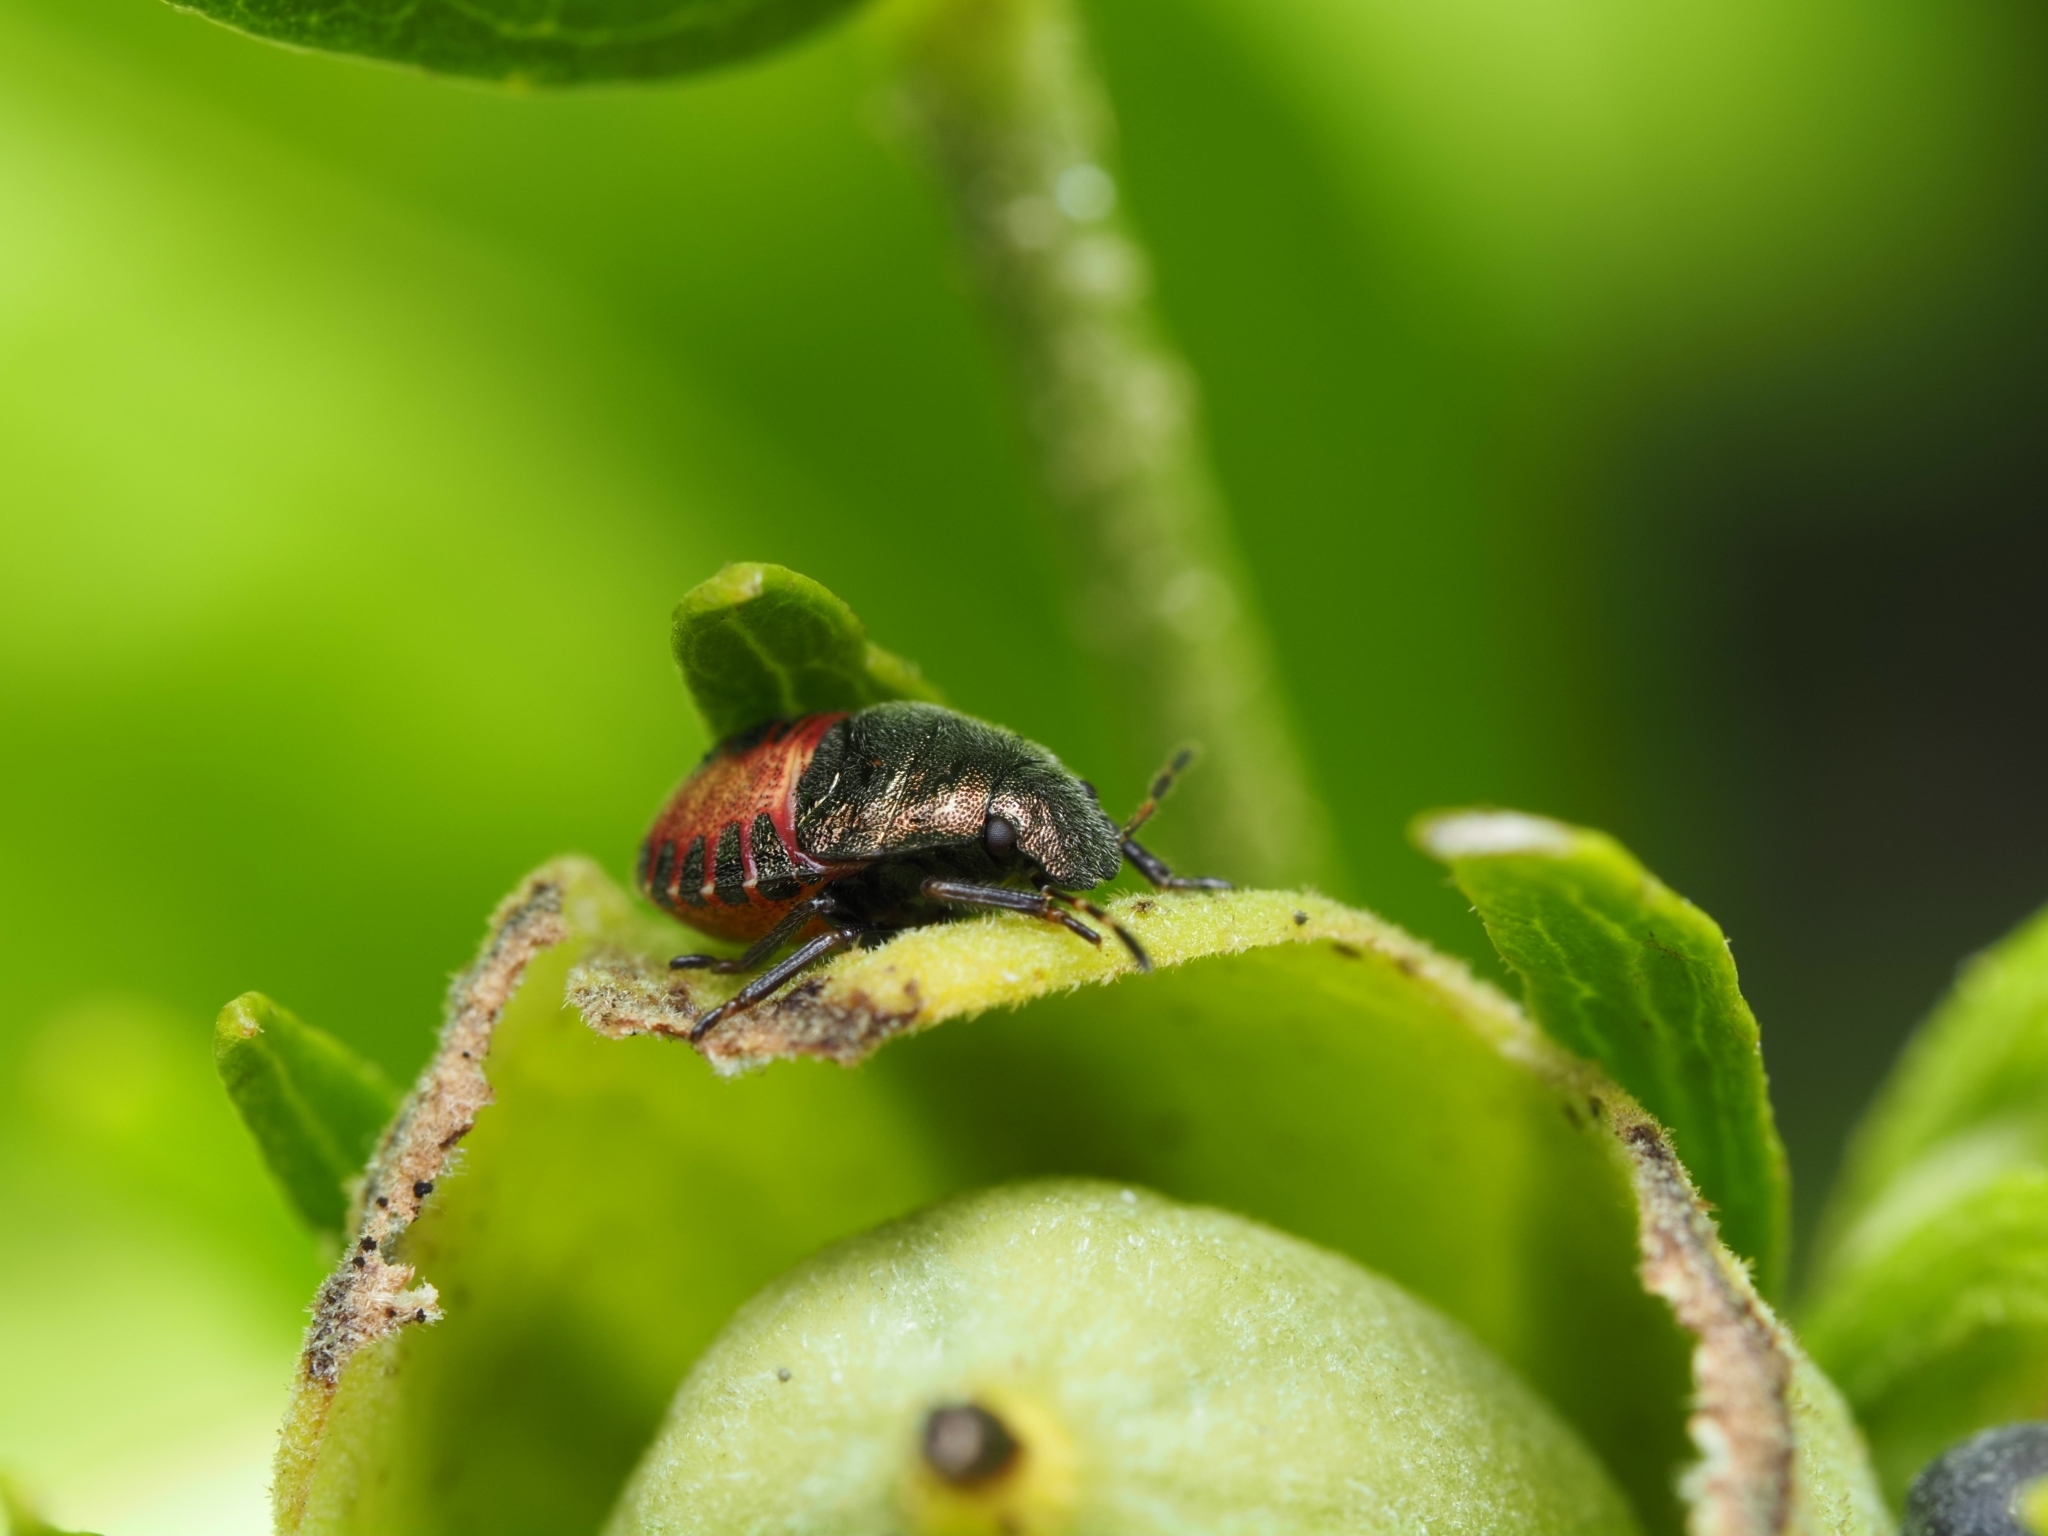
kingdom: Animalia
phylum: Arthropoda
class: Insecta
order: Hemiptera
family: Pentatomidae
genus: Holcostethus
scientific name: Holcostethus strictus
